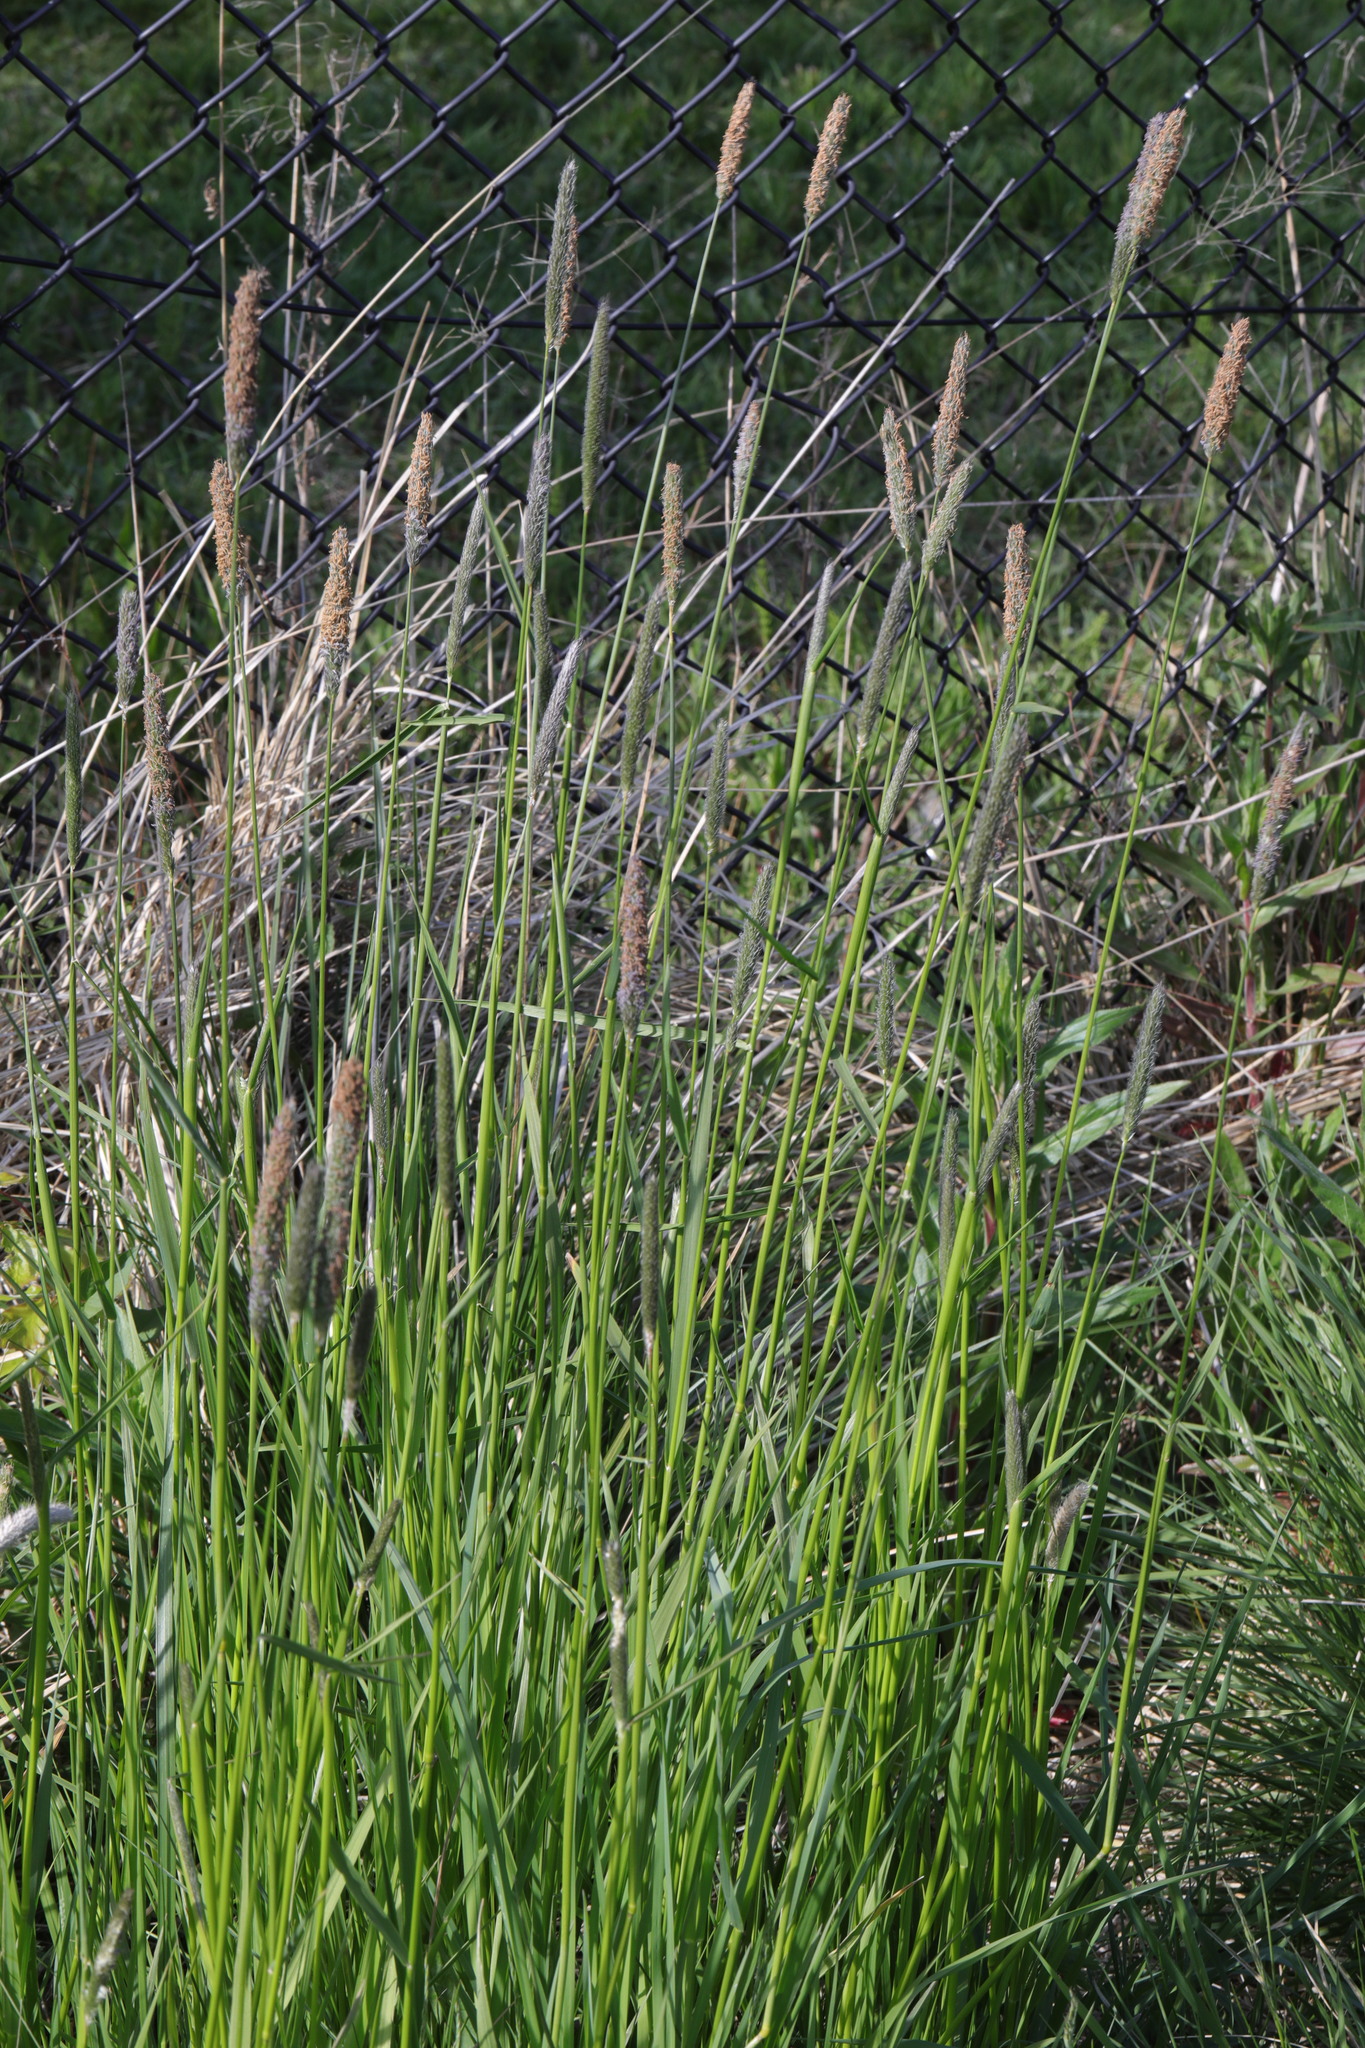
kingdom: Plantae
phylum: Tracheophyta
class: Liliopsida
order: Poales
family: Poaceae
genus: Alopecurus
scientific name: Alopecurus pratensis
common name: Meadow foxtail
